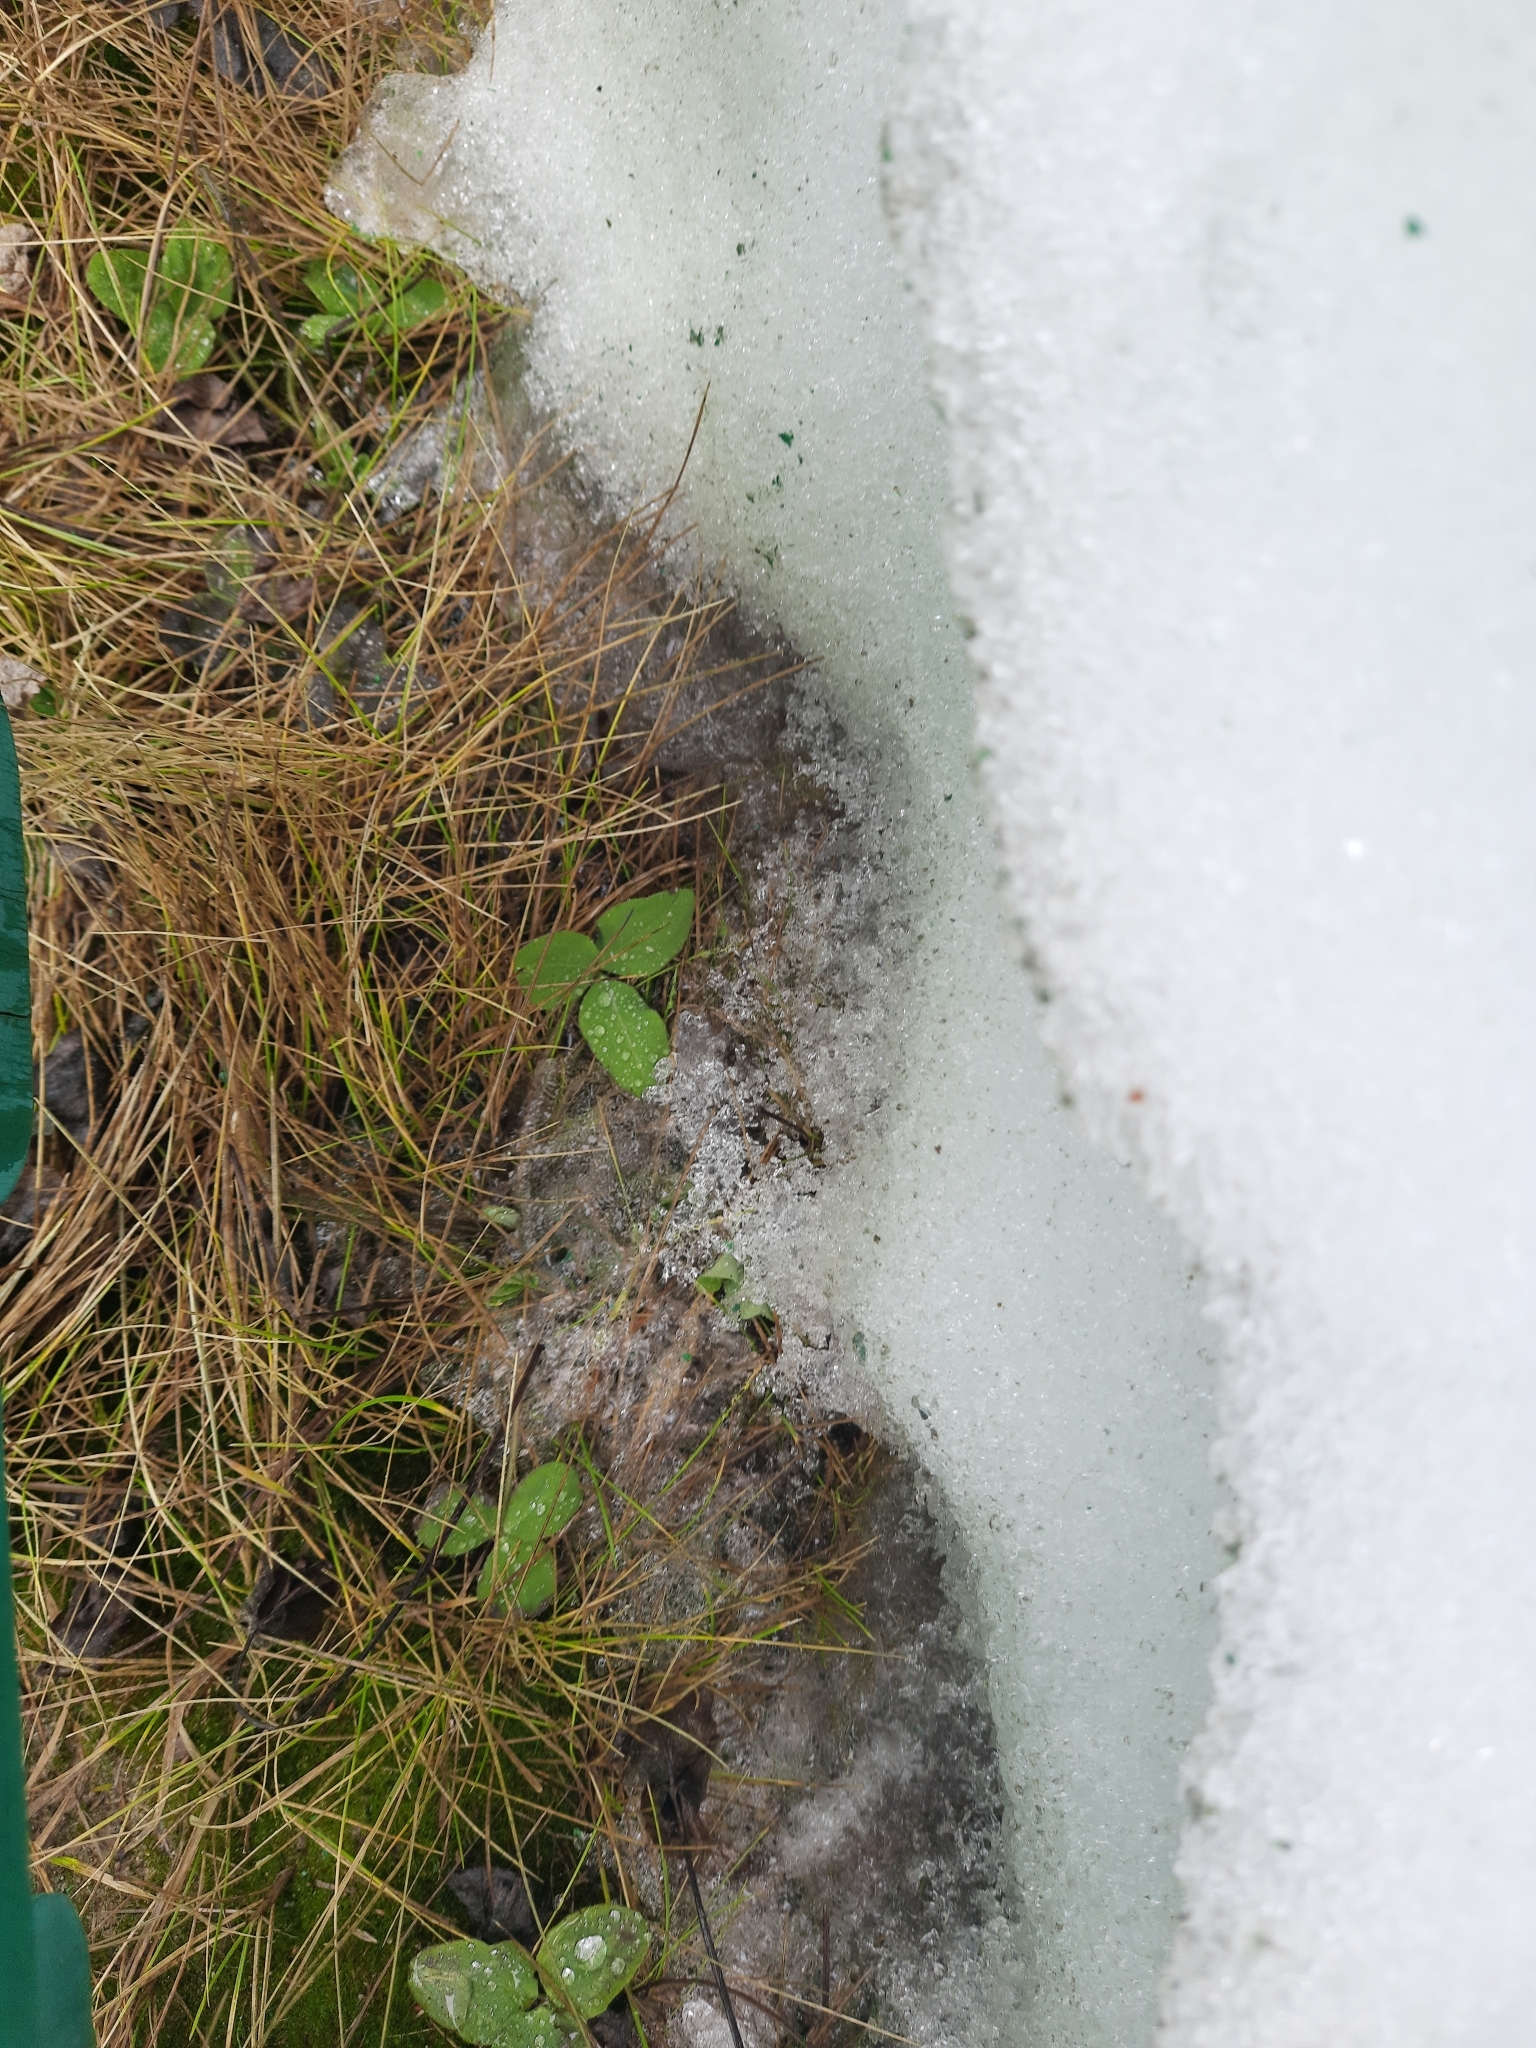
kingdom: Plantae
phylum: Tracheophyta
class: Magnoliopsida
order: Fabales
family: Fabaceae
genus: Trifolium
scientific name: Trifolium pratense
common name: Red clover
